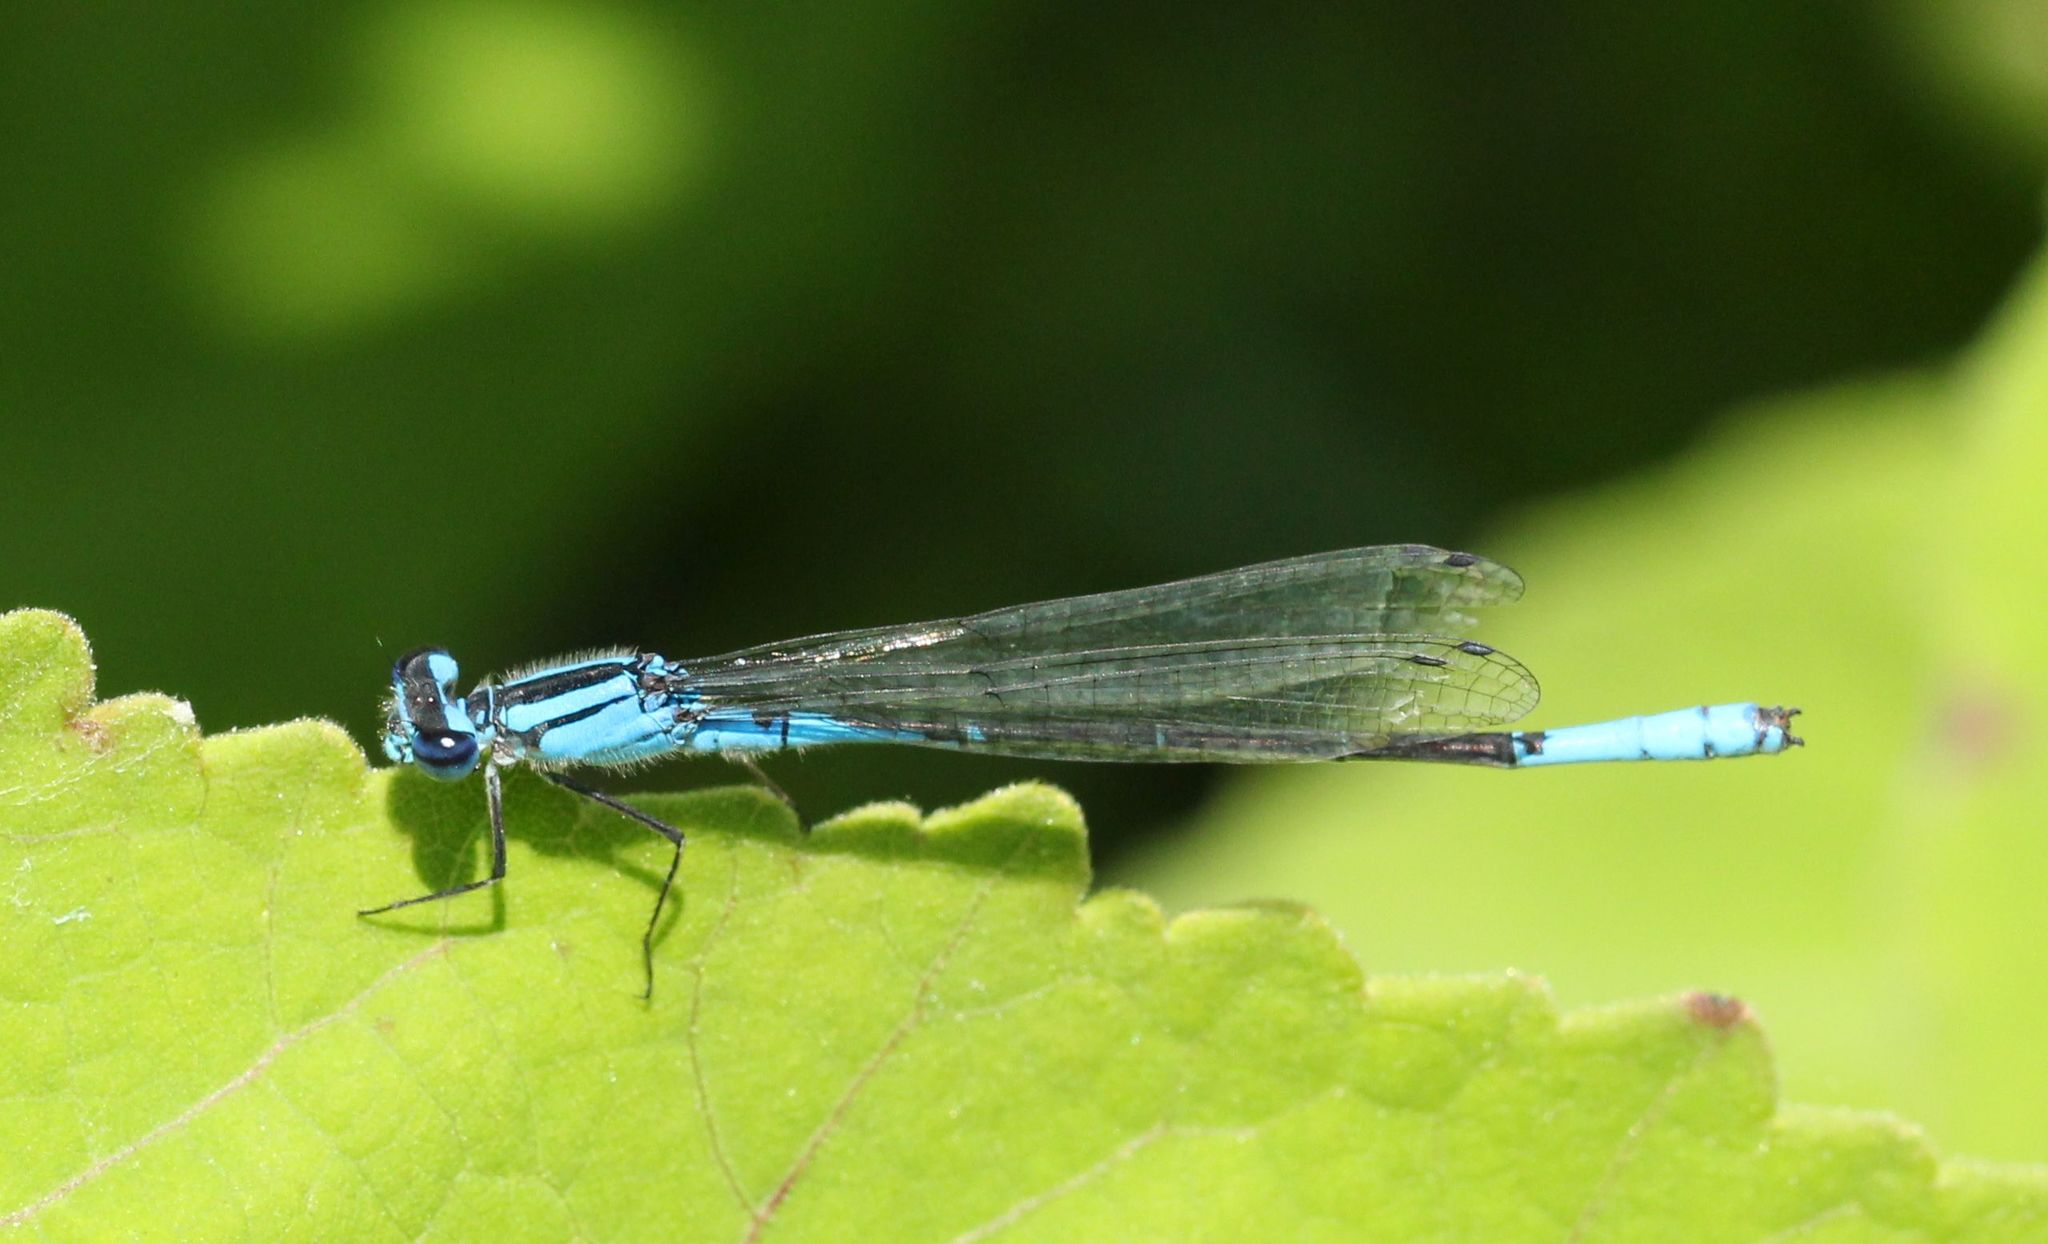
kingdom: Animalia
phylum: Arthropoda
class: Insecta
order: Odonata
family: Coenagrionidae
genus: Enallagma
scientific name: Enallagma aspersum
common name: Azure bluet
